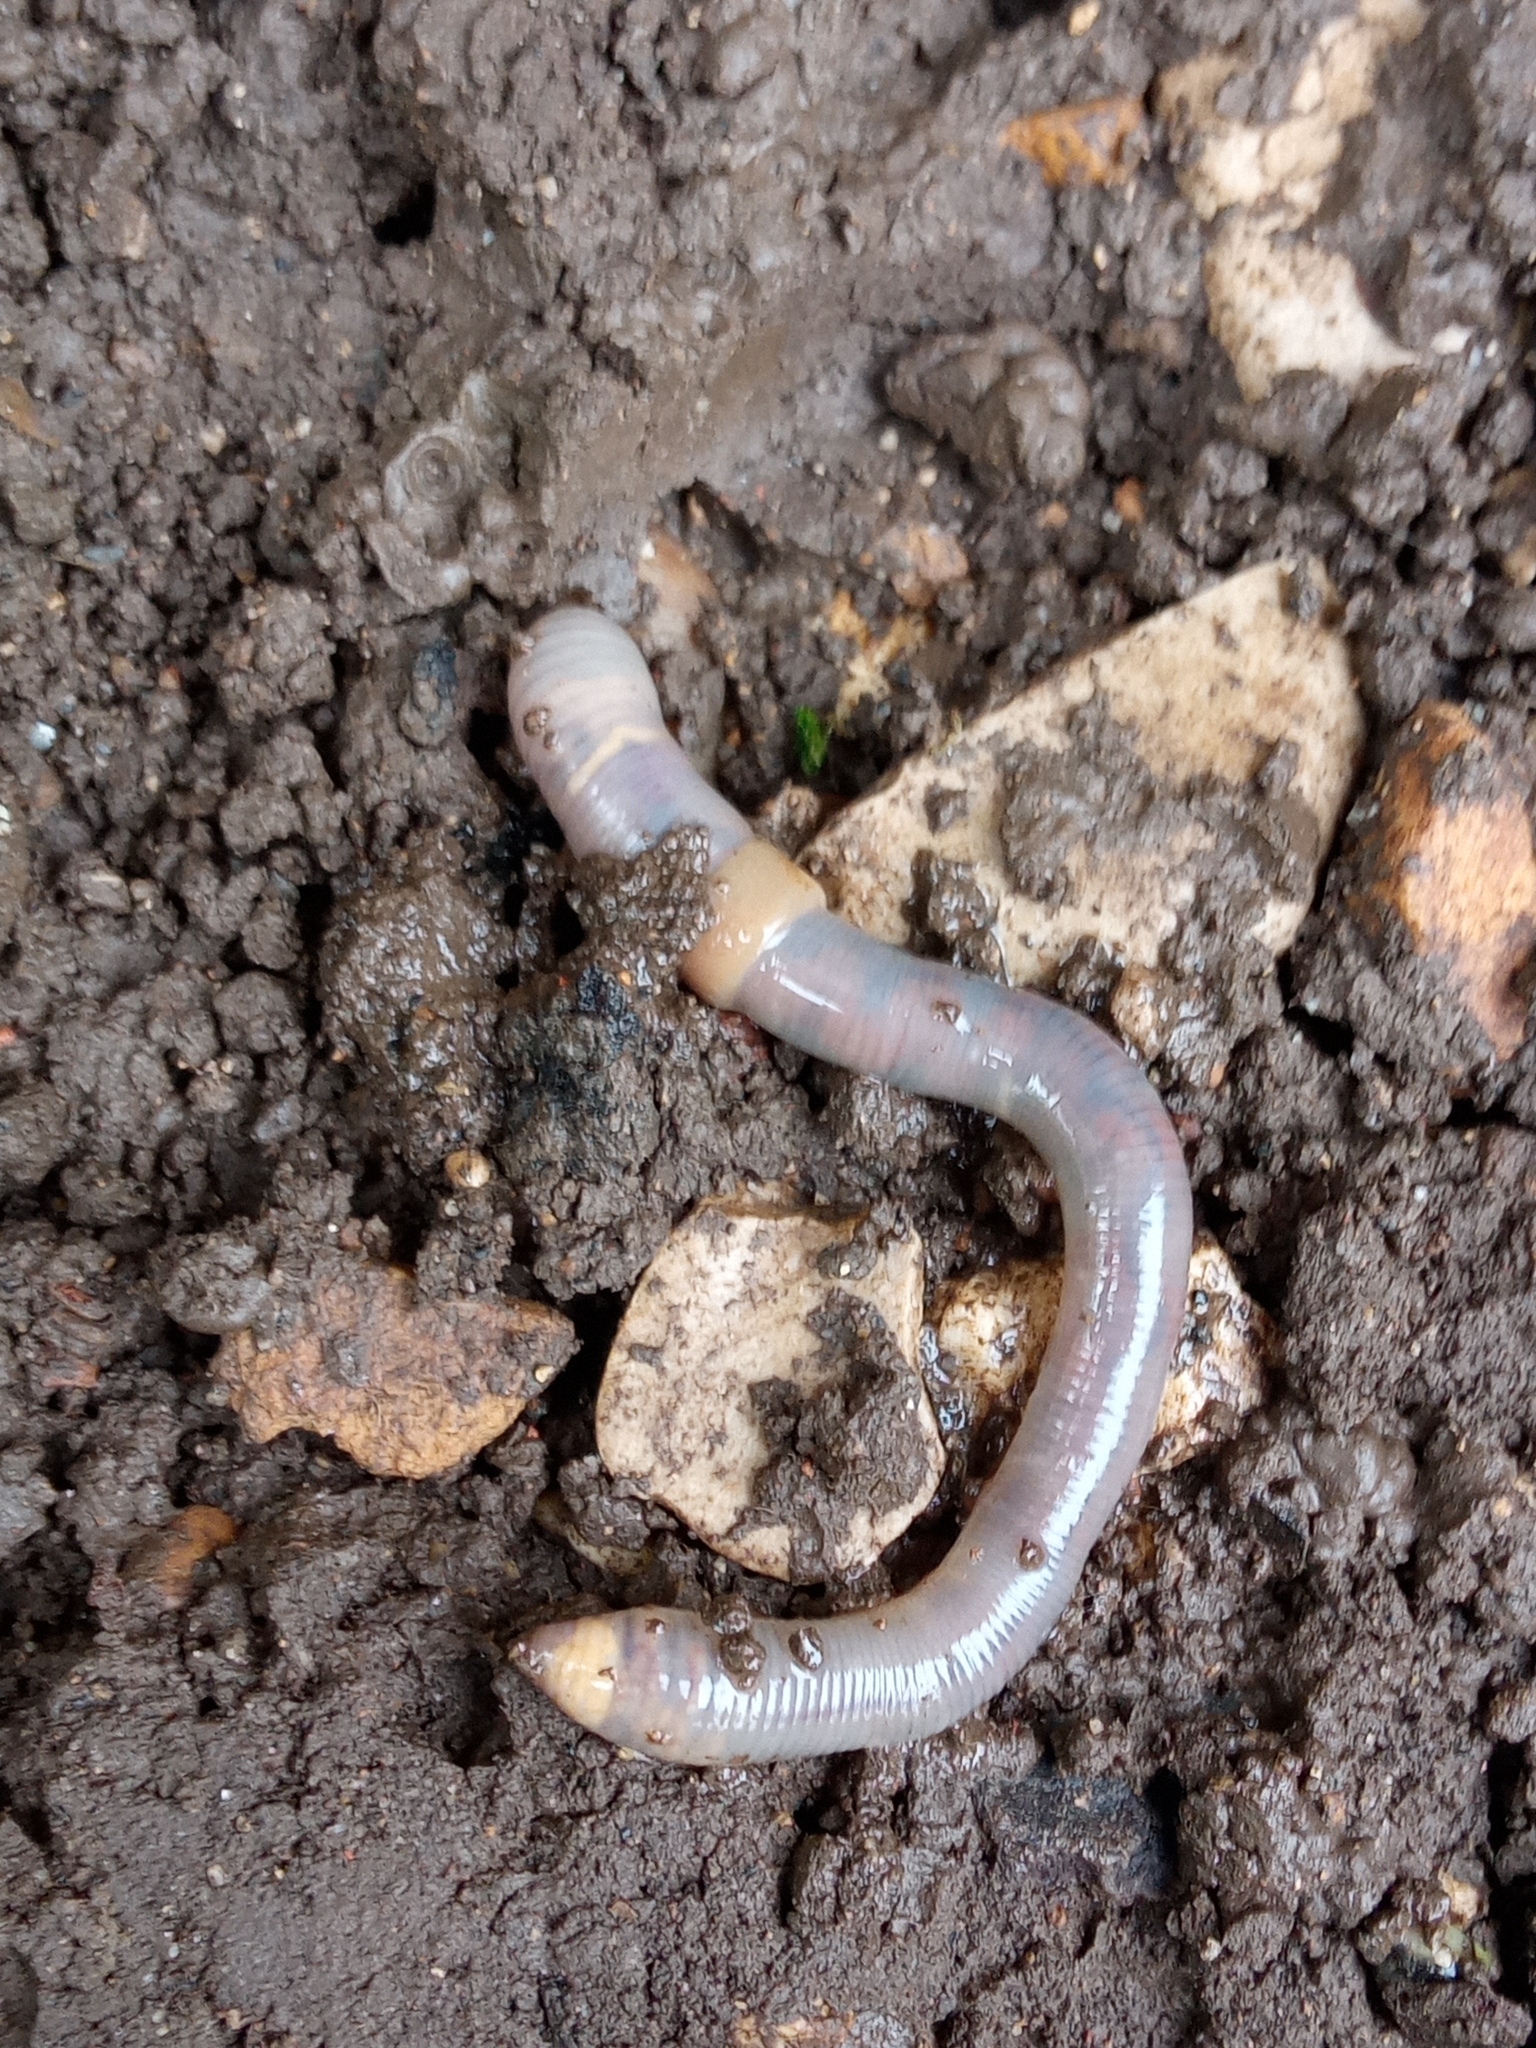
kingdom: Animalia
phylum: Annelida
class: Clitellata
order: Crassiclitellata
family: Lumbricidae
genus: Octolasion
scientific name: Octolasion cyaneum
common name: Woodland blue worm
